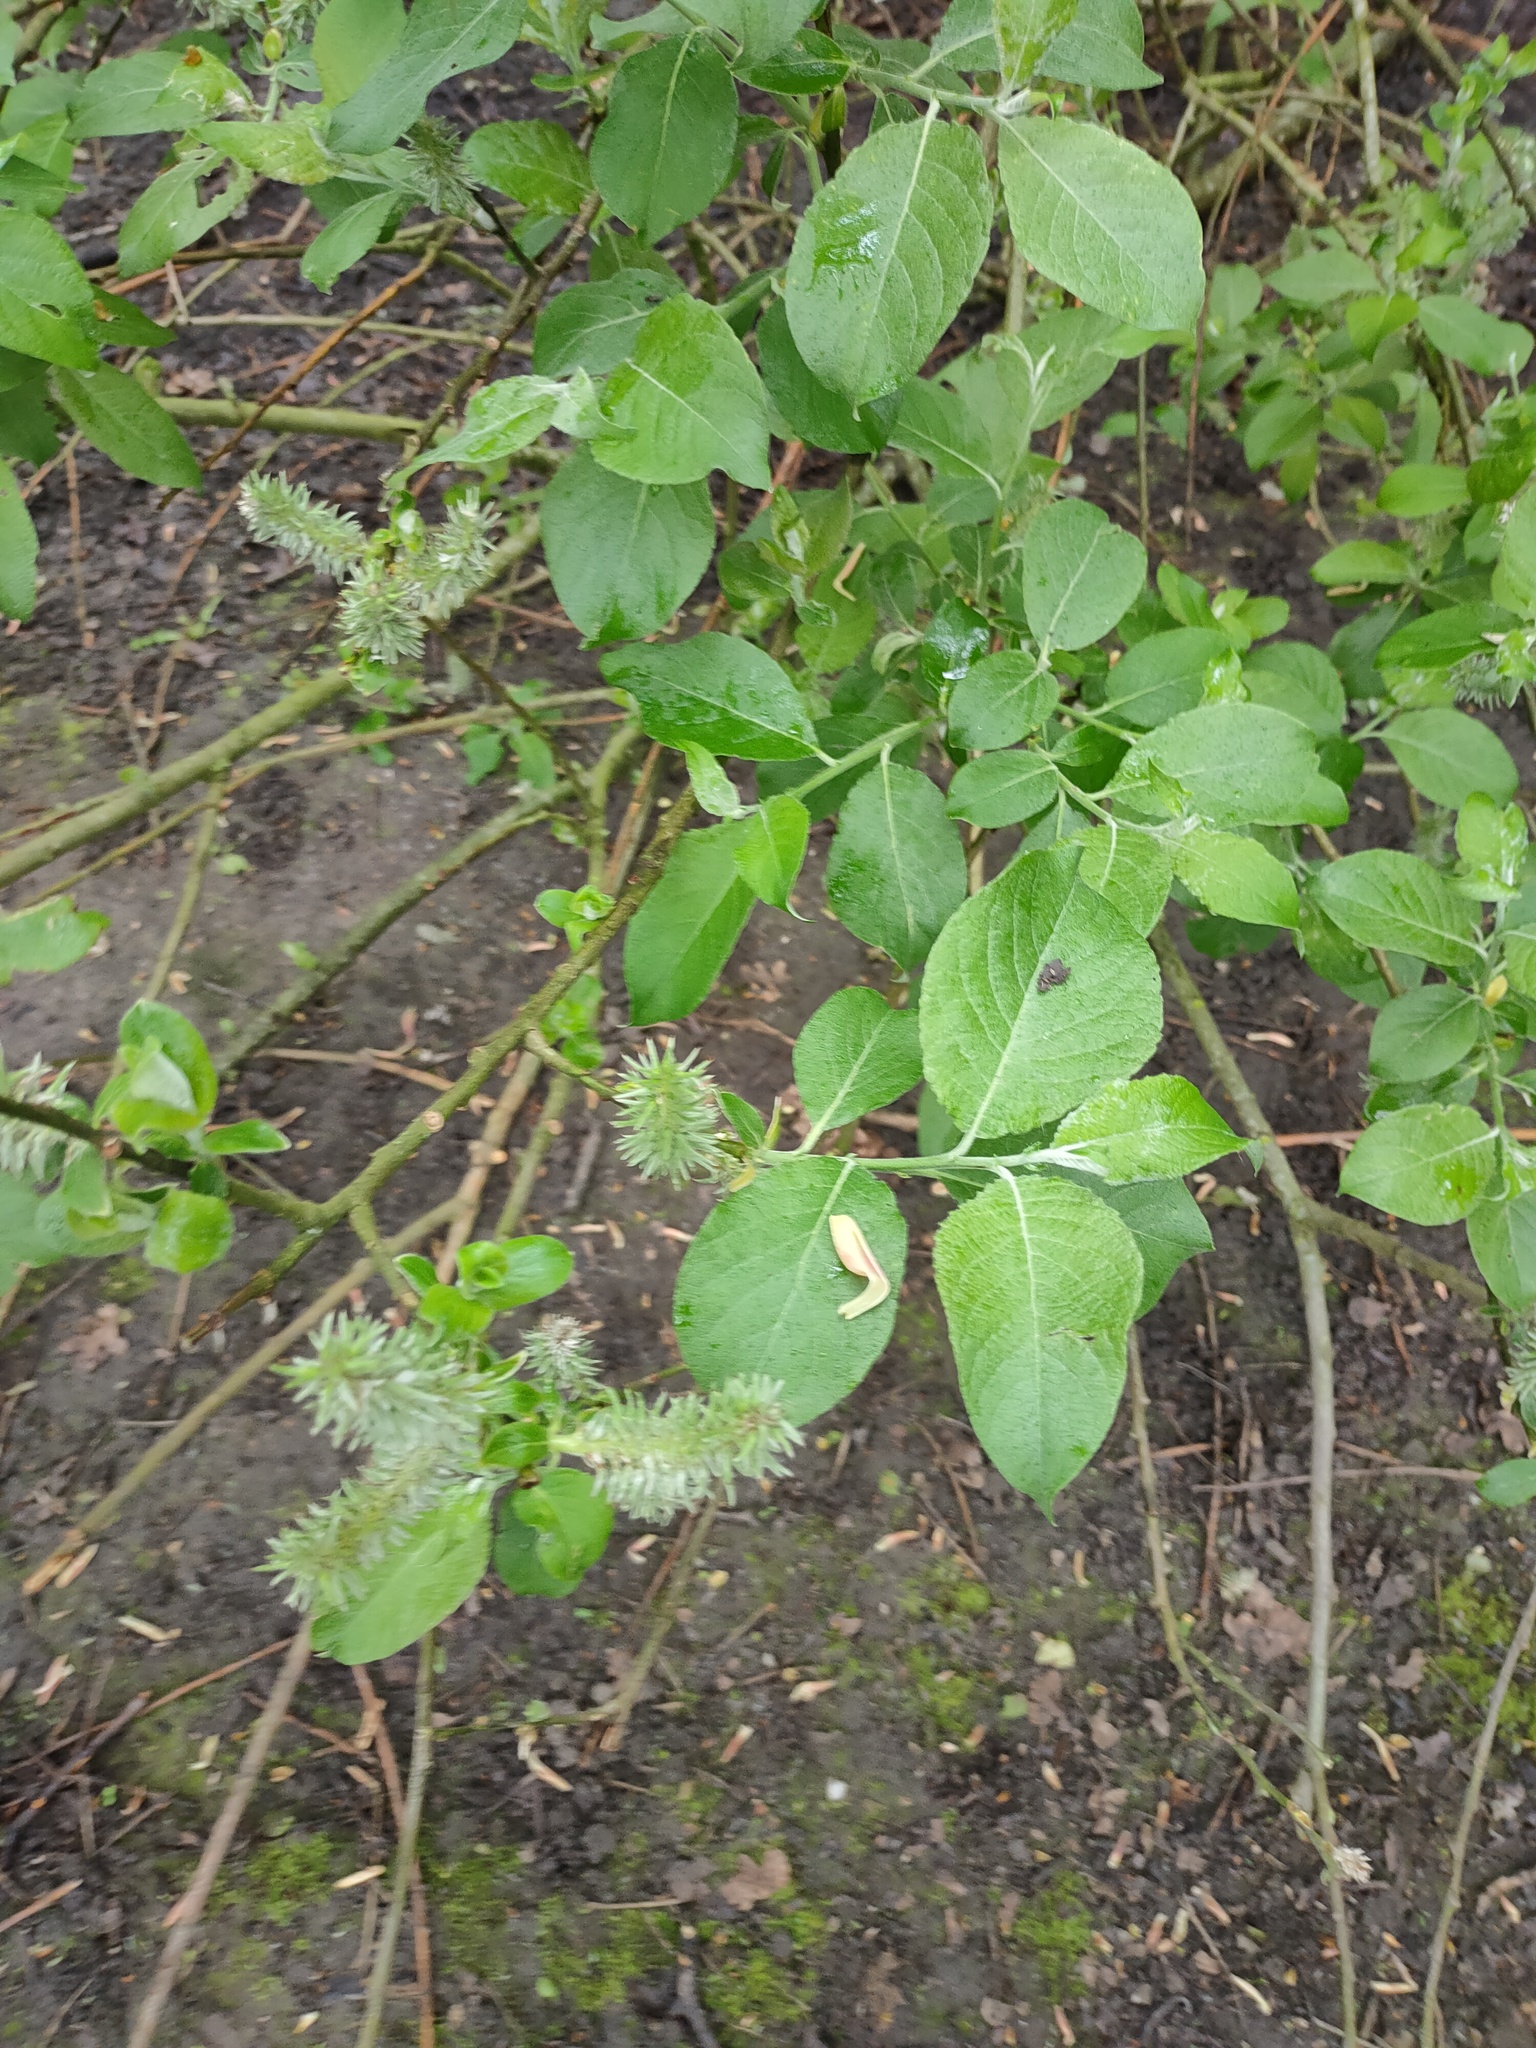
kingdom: Plantae
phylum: Tracheophyta
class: Magnoliopsida
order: Malpighiales
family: Salicaceae
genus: Salix
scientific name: Salix caprea
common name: Goat willow
